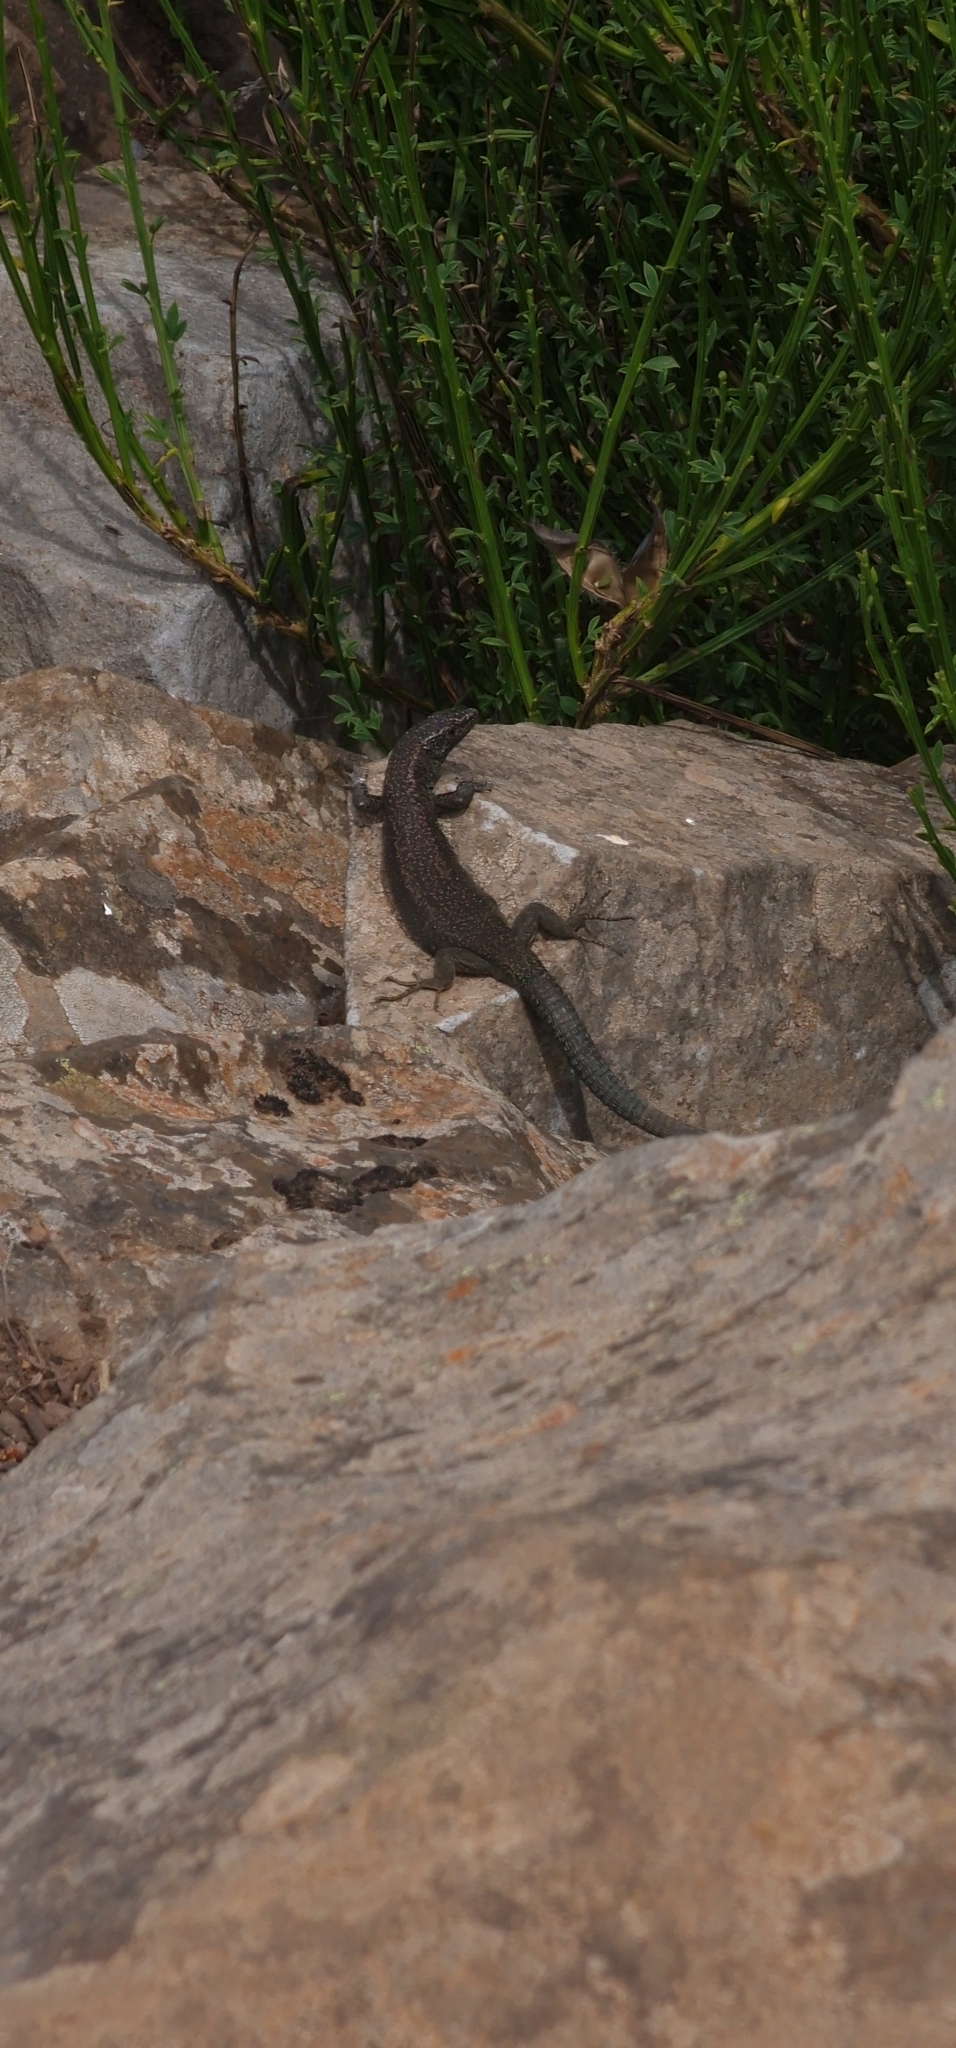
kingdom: Animalia
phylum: Chordata
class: Squamata
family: Lacertidae
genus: Teira
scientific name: Teira dugesii
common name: Madeira lizard
